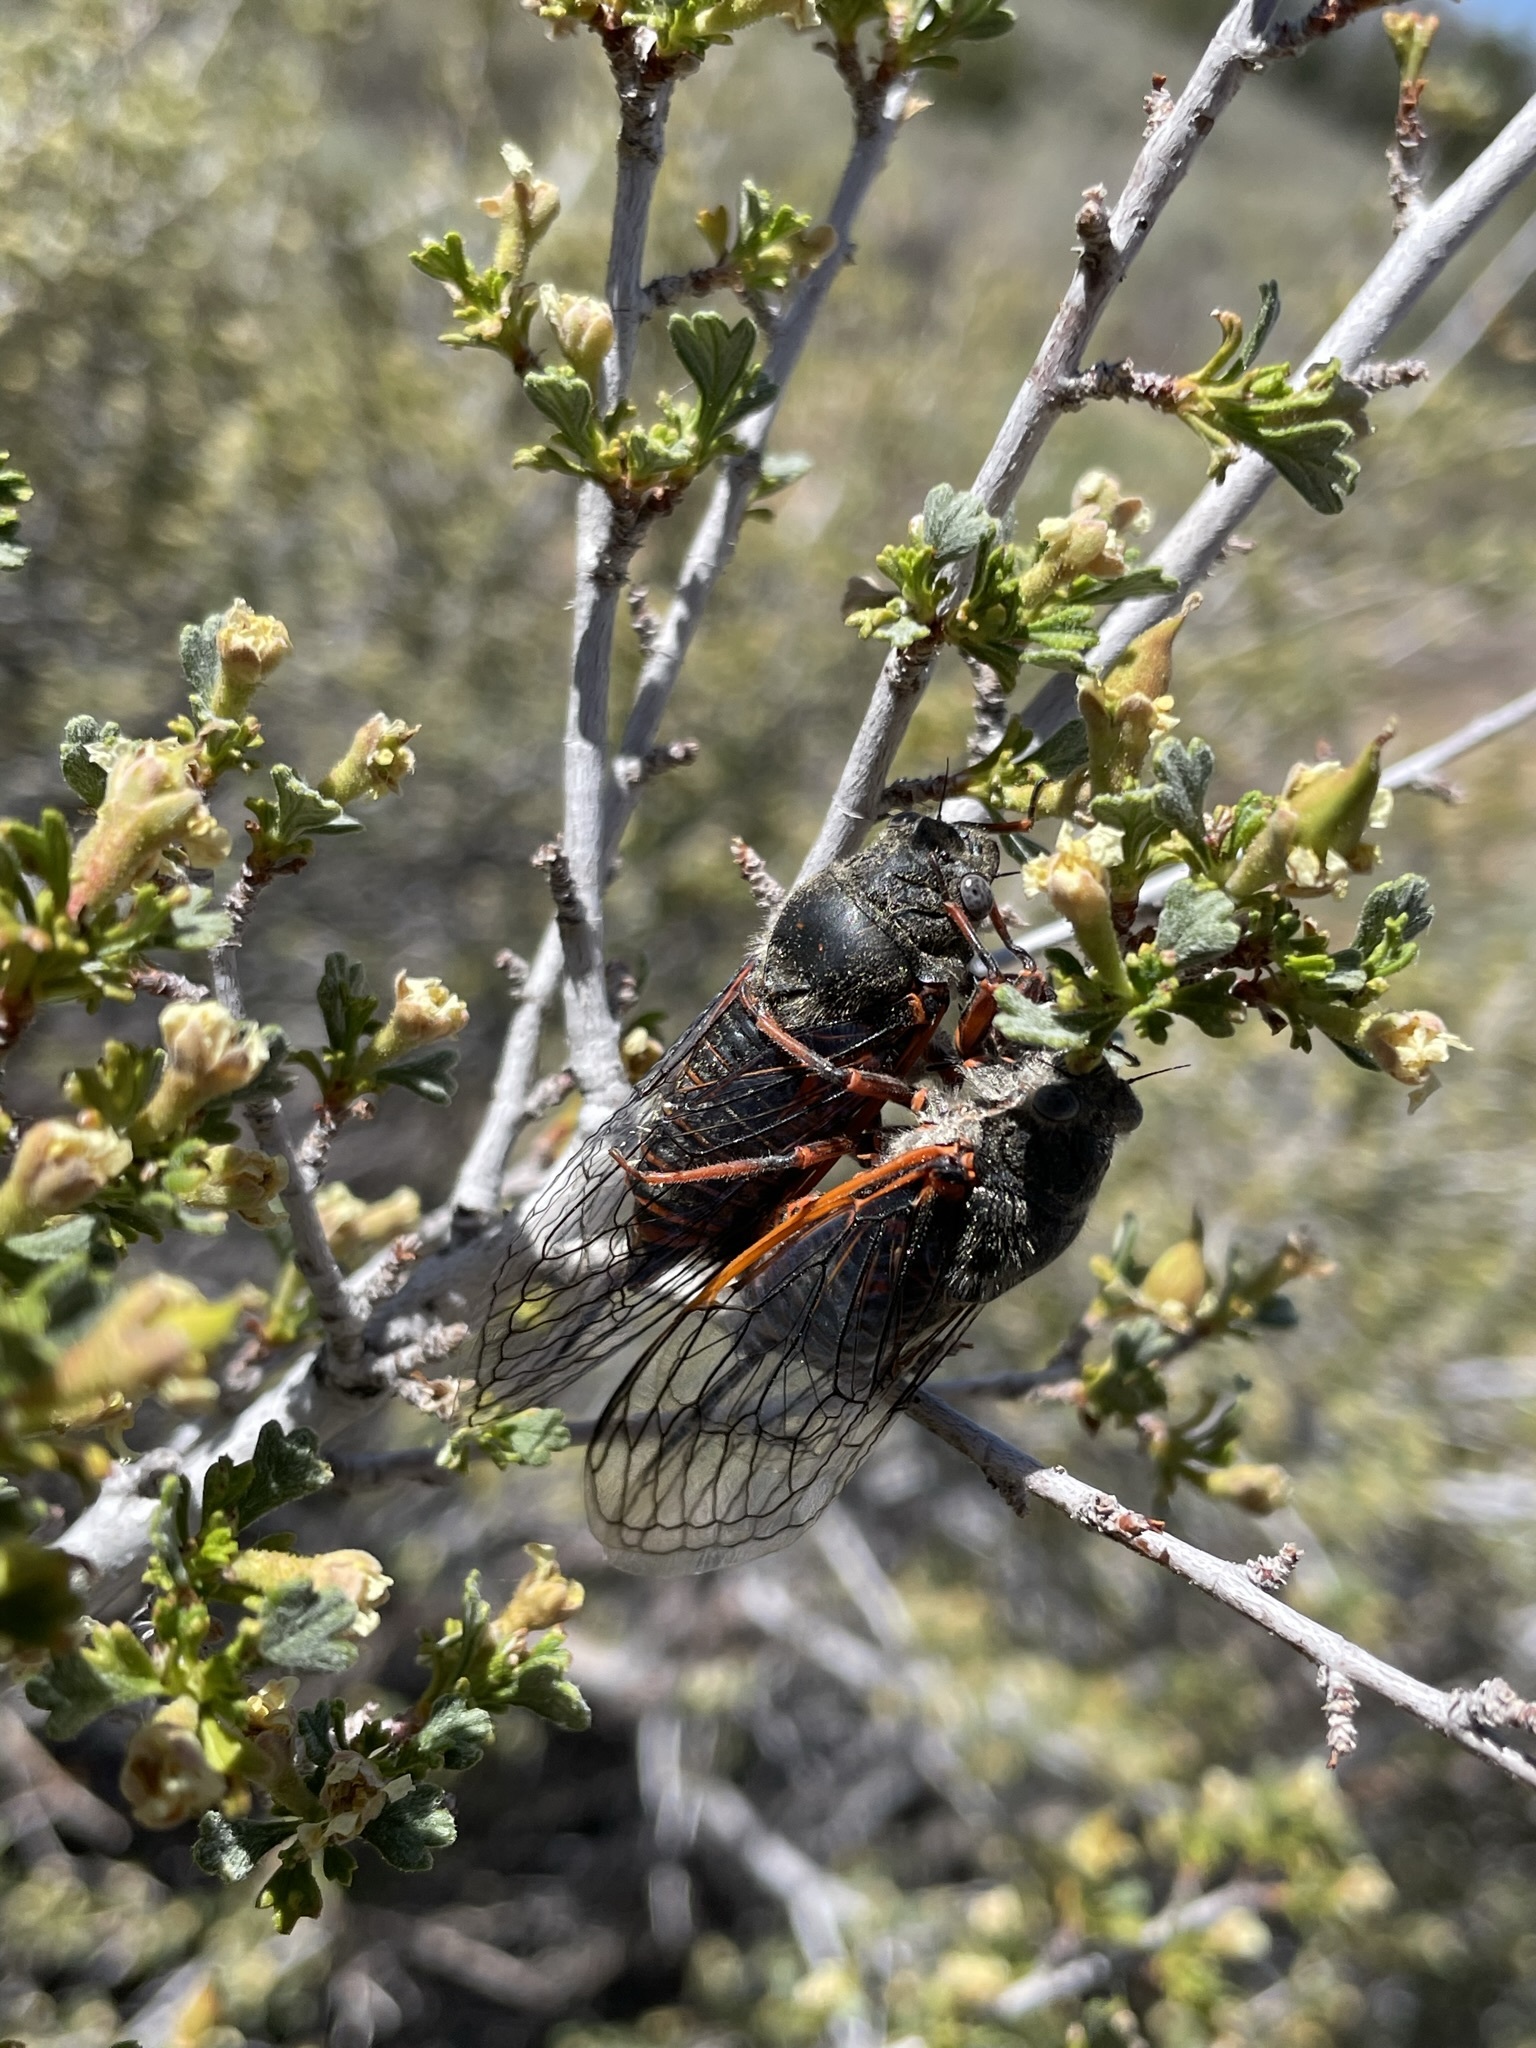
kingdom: Animalia
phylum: Arthropoda
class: Insecta
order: Hemiptera
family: Cicadidae
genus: Okanagana
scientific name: Okanagana cruentifera
